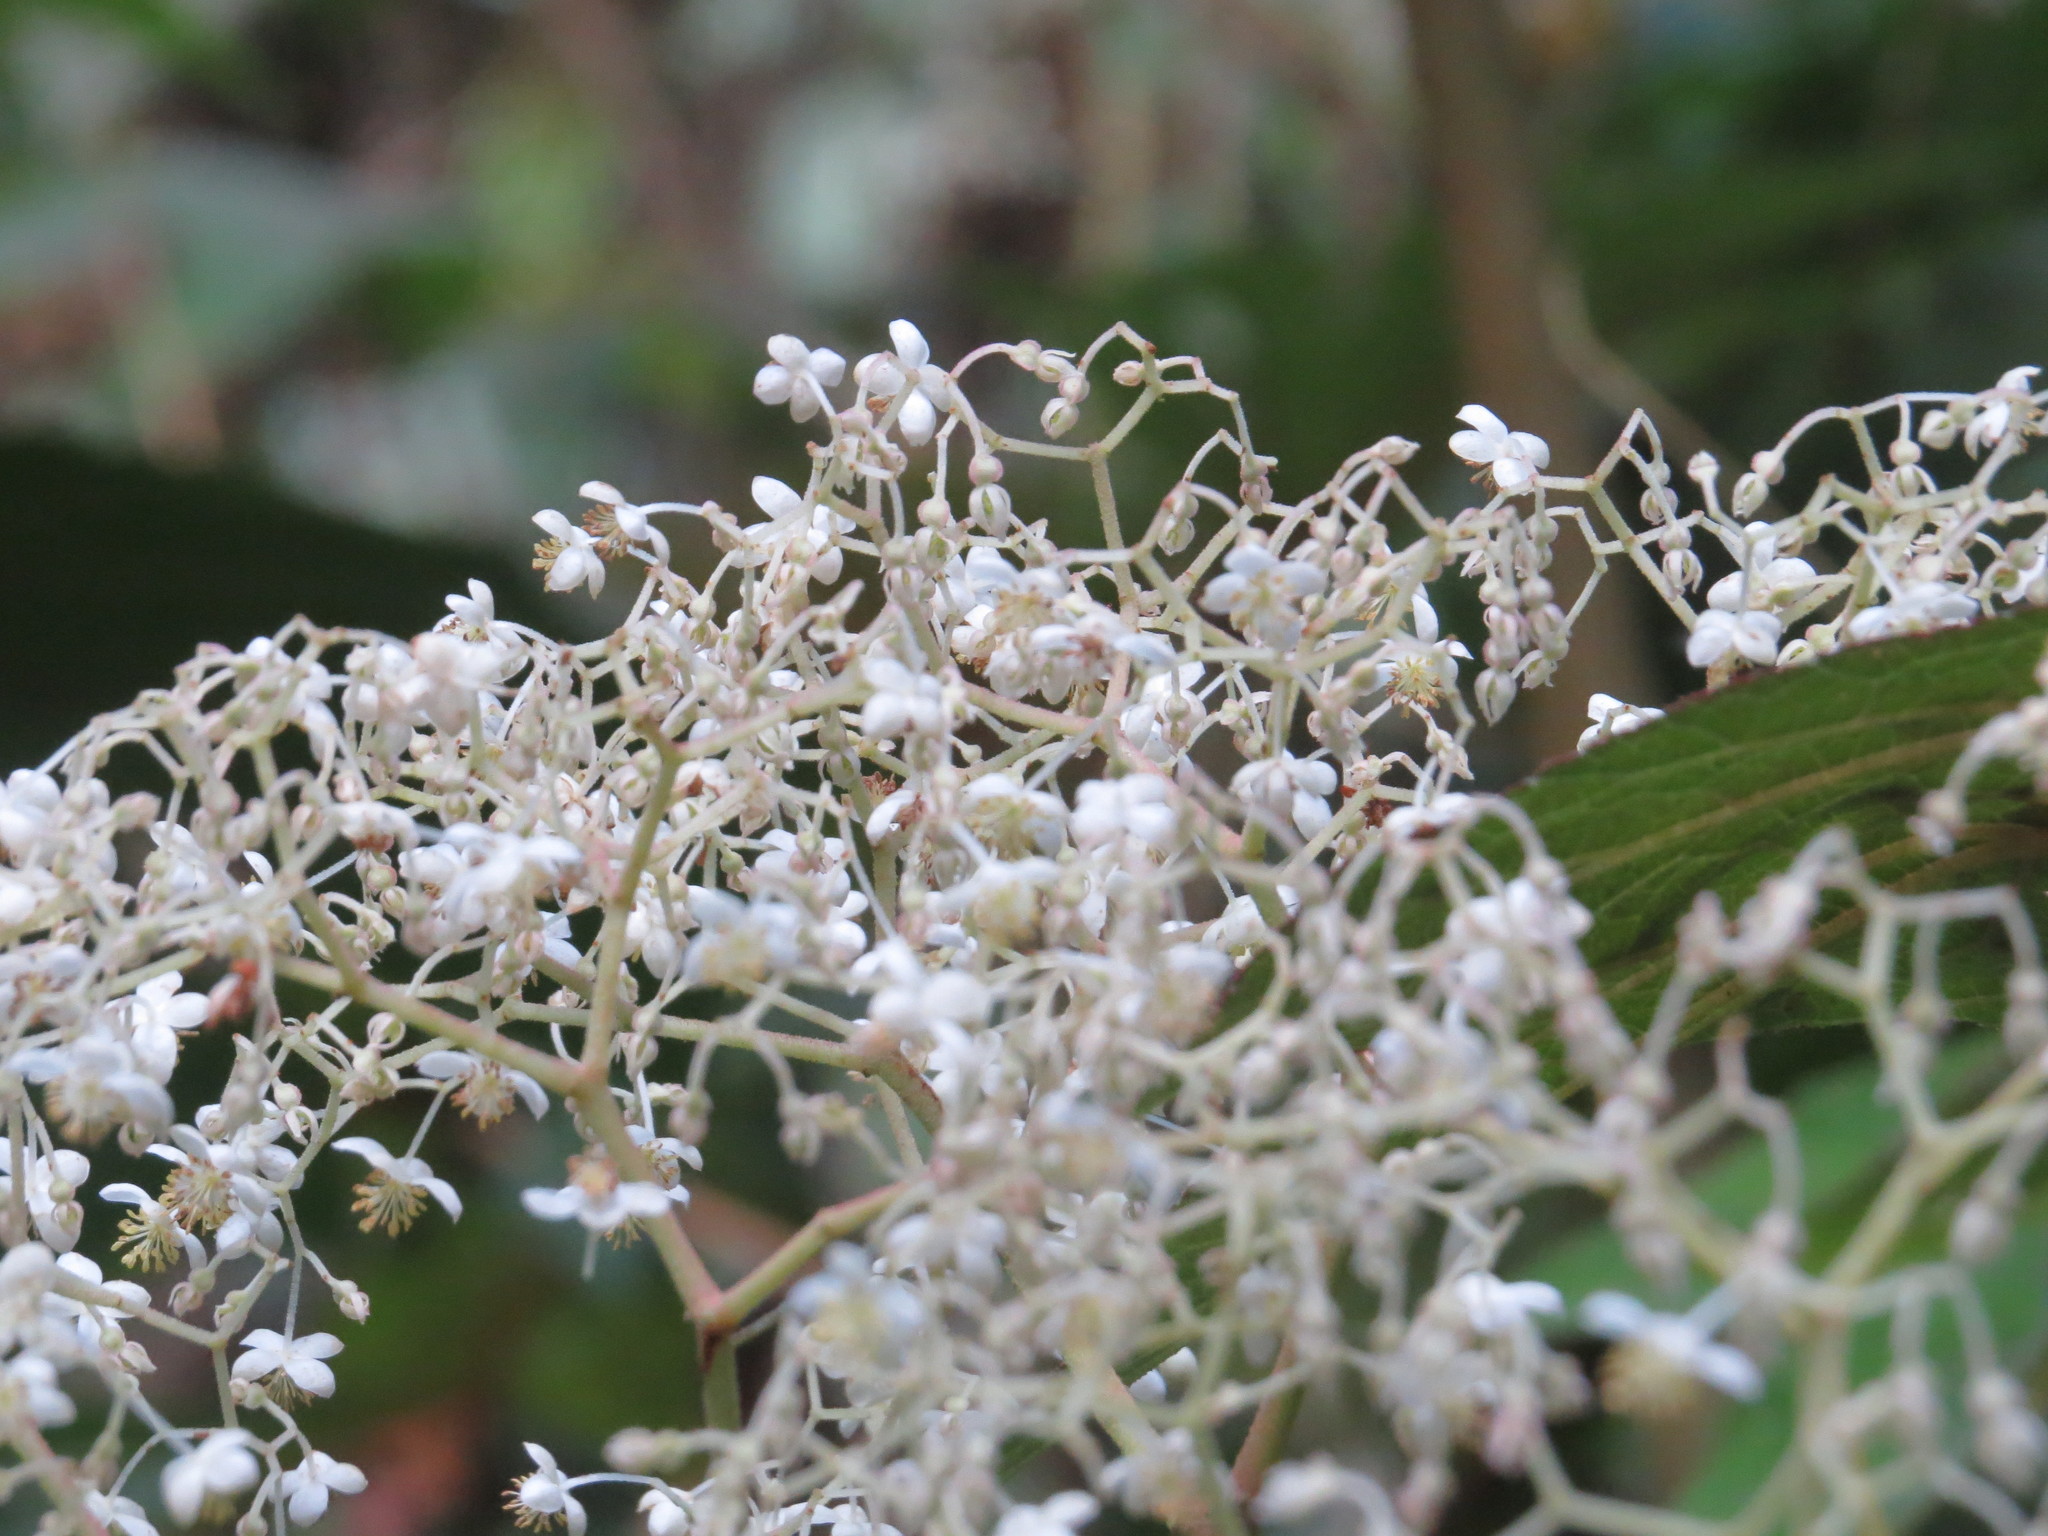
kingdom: Plantae
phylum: Tracheophyta
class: Magnoliopsida
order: Cucurbitales
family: Begoniaceae
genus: Begonia
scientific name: Begonia parviflora
